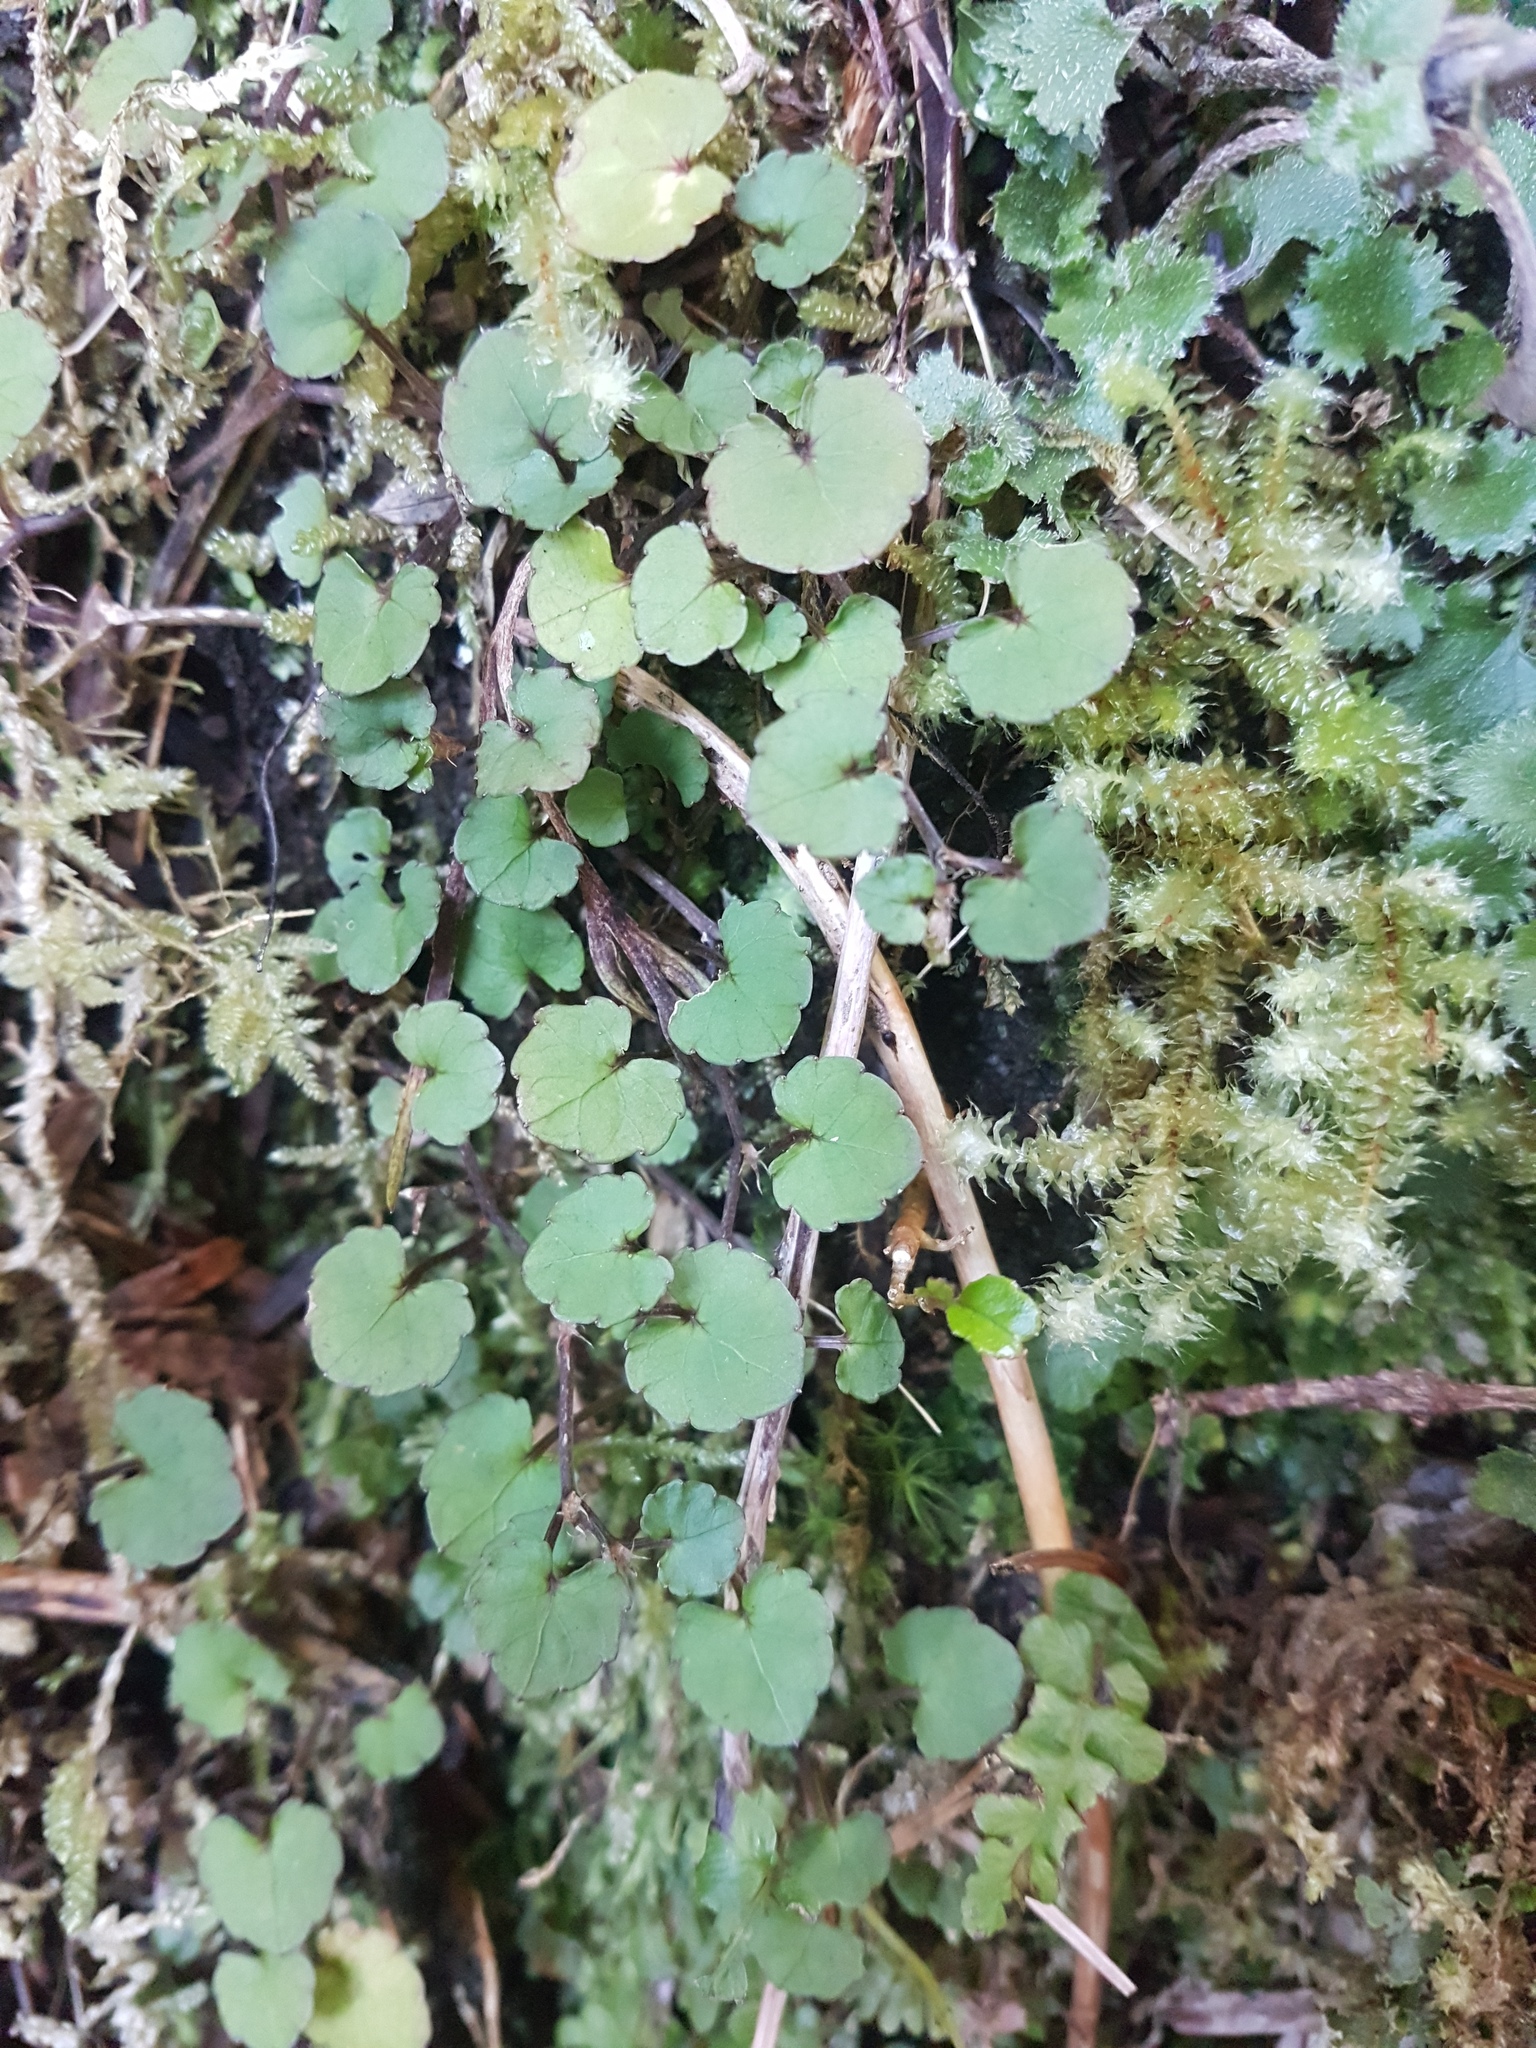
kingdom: Plantae
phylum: Tracheophyta
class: Magnoliopsida
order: Malpighiales
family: Violaceae
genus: Viola
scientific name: Viola filicaulis
